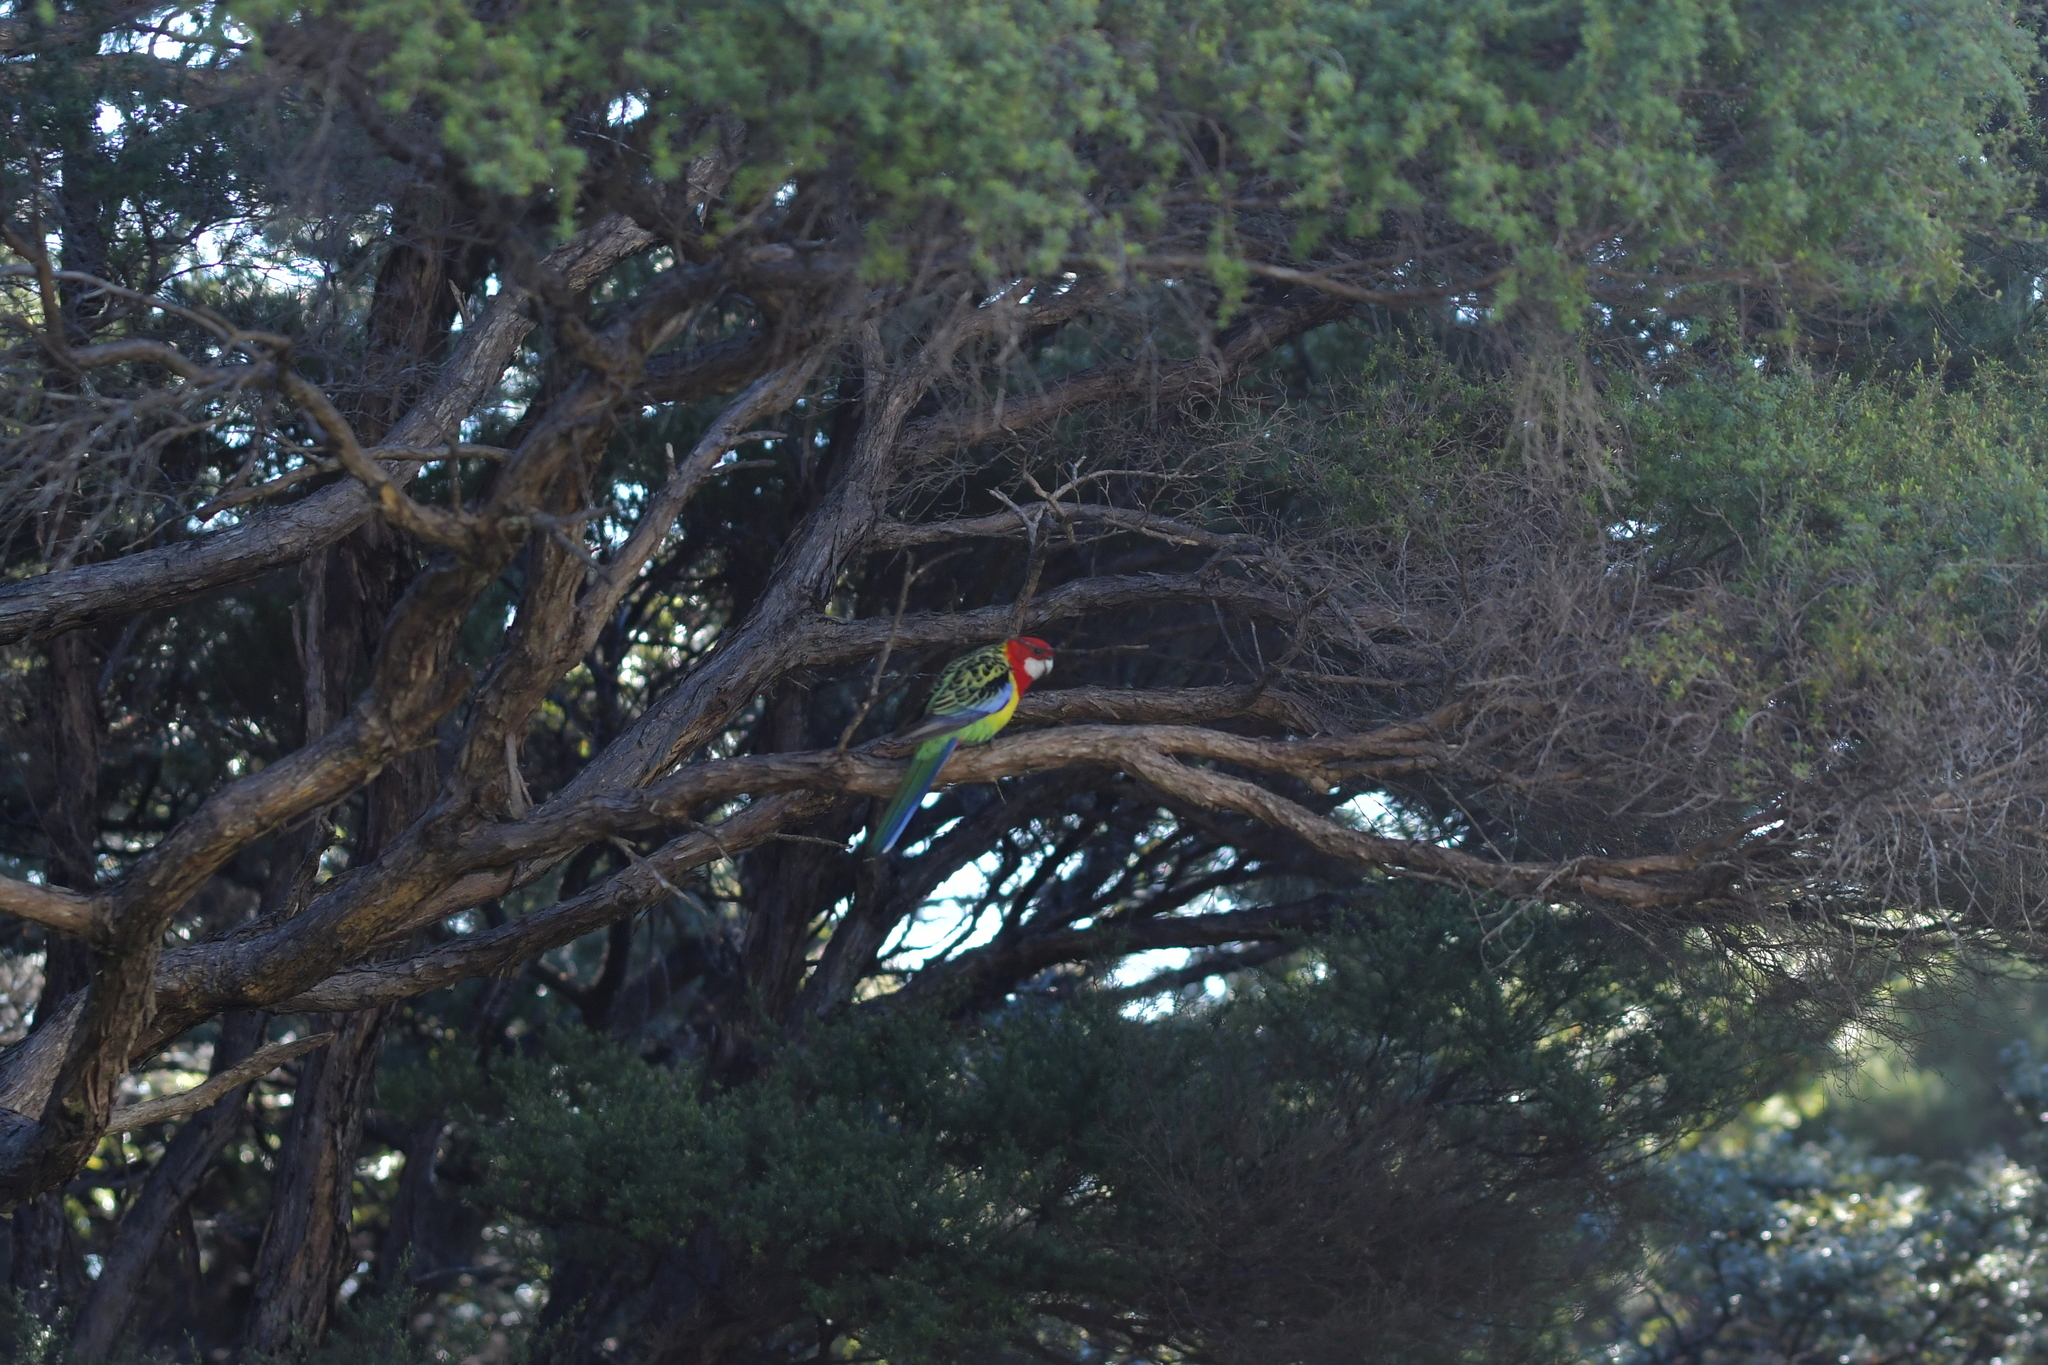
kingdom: Animalia
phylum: Chordata
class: Aves
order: Psittaciformes
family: Psittacidae
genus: Platycercus
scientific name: Platycercus eximius
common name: Eastern rosella
